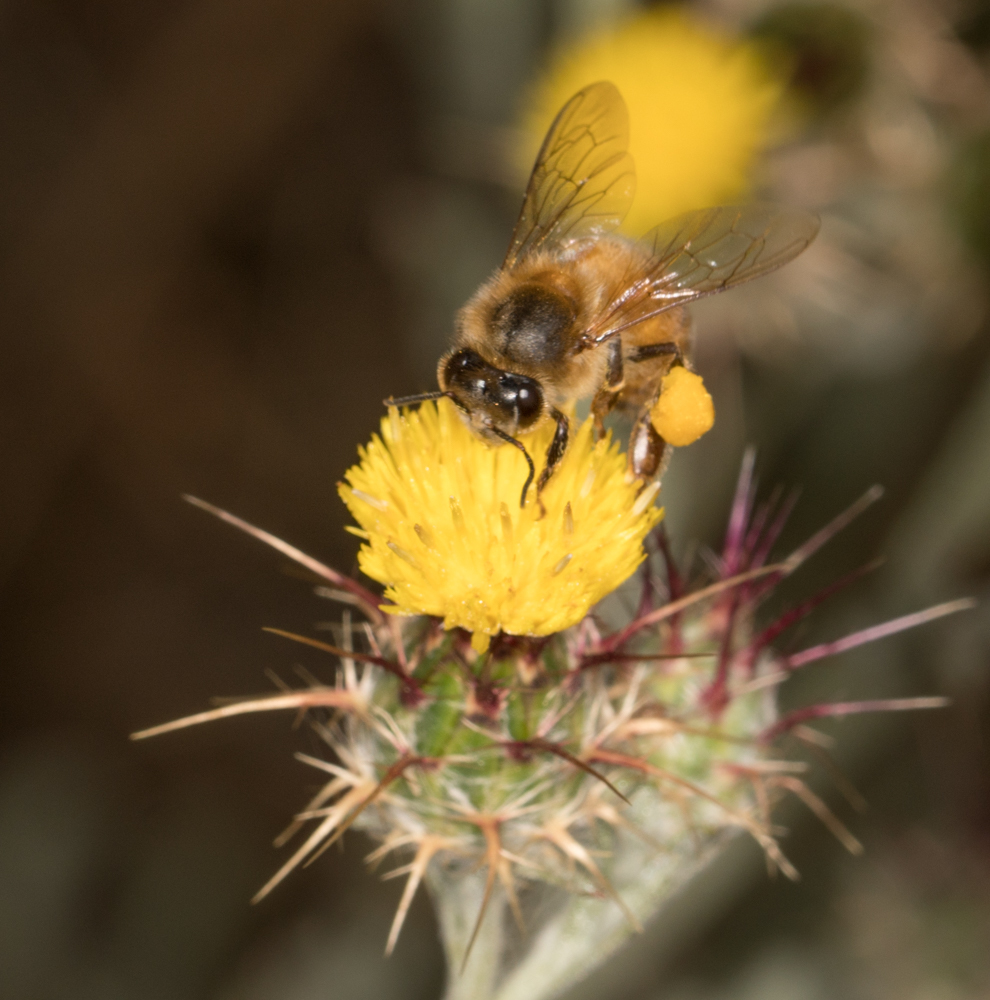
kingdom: Animalia
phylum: Arthropoda
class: Insecta
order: Hymenoptera
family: Apidae
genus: Apis
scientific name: Apis mellifera
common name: Honey bee
